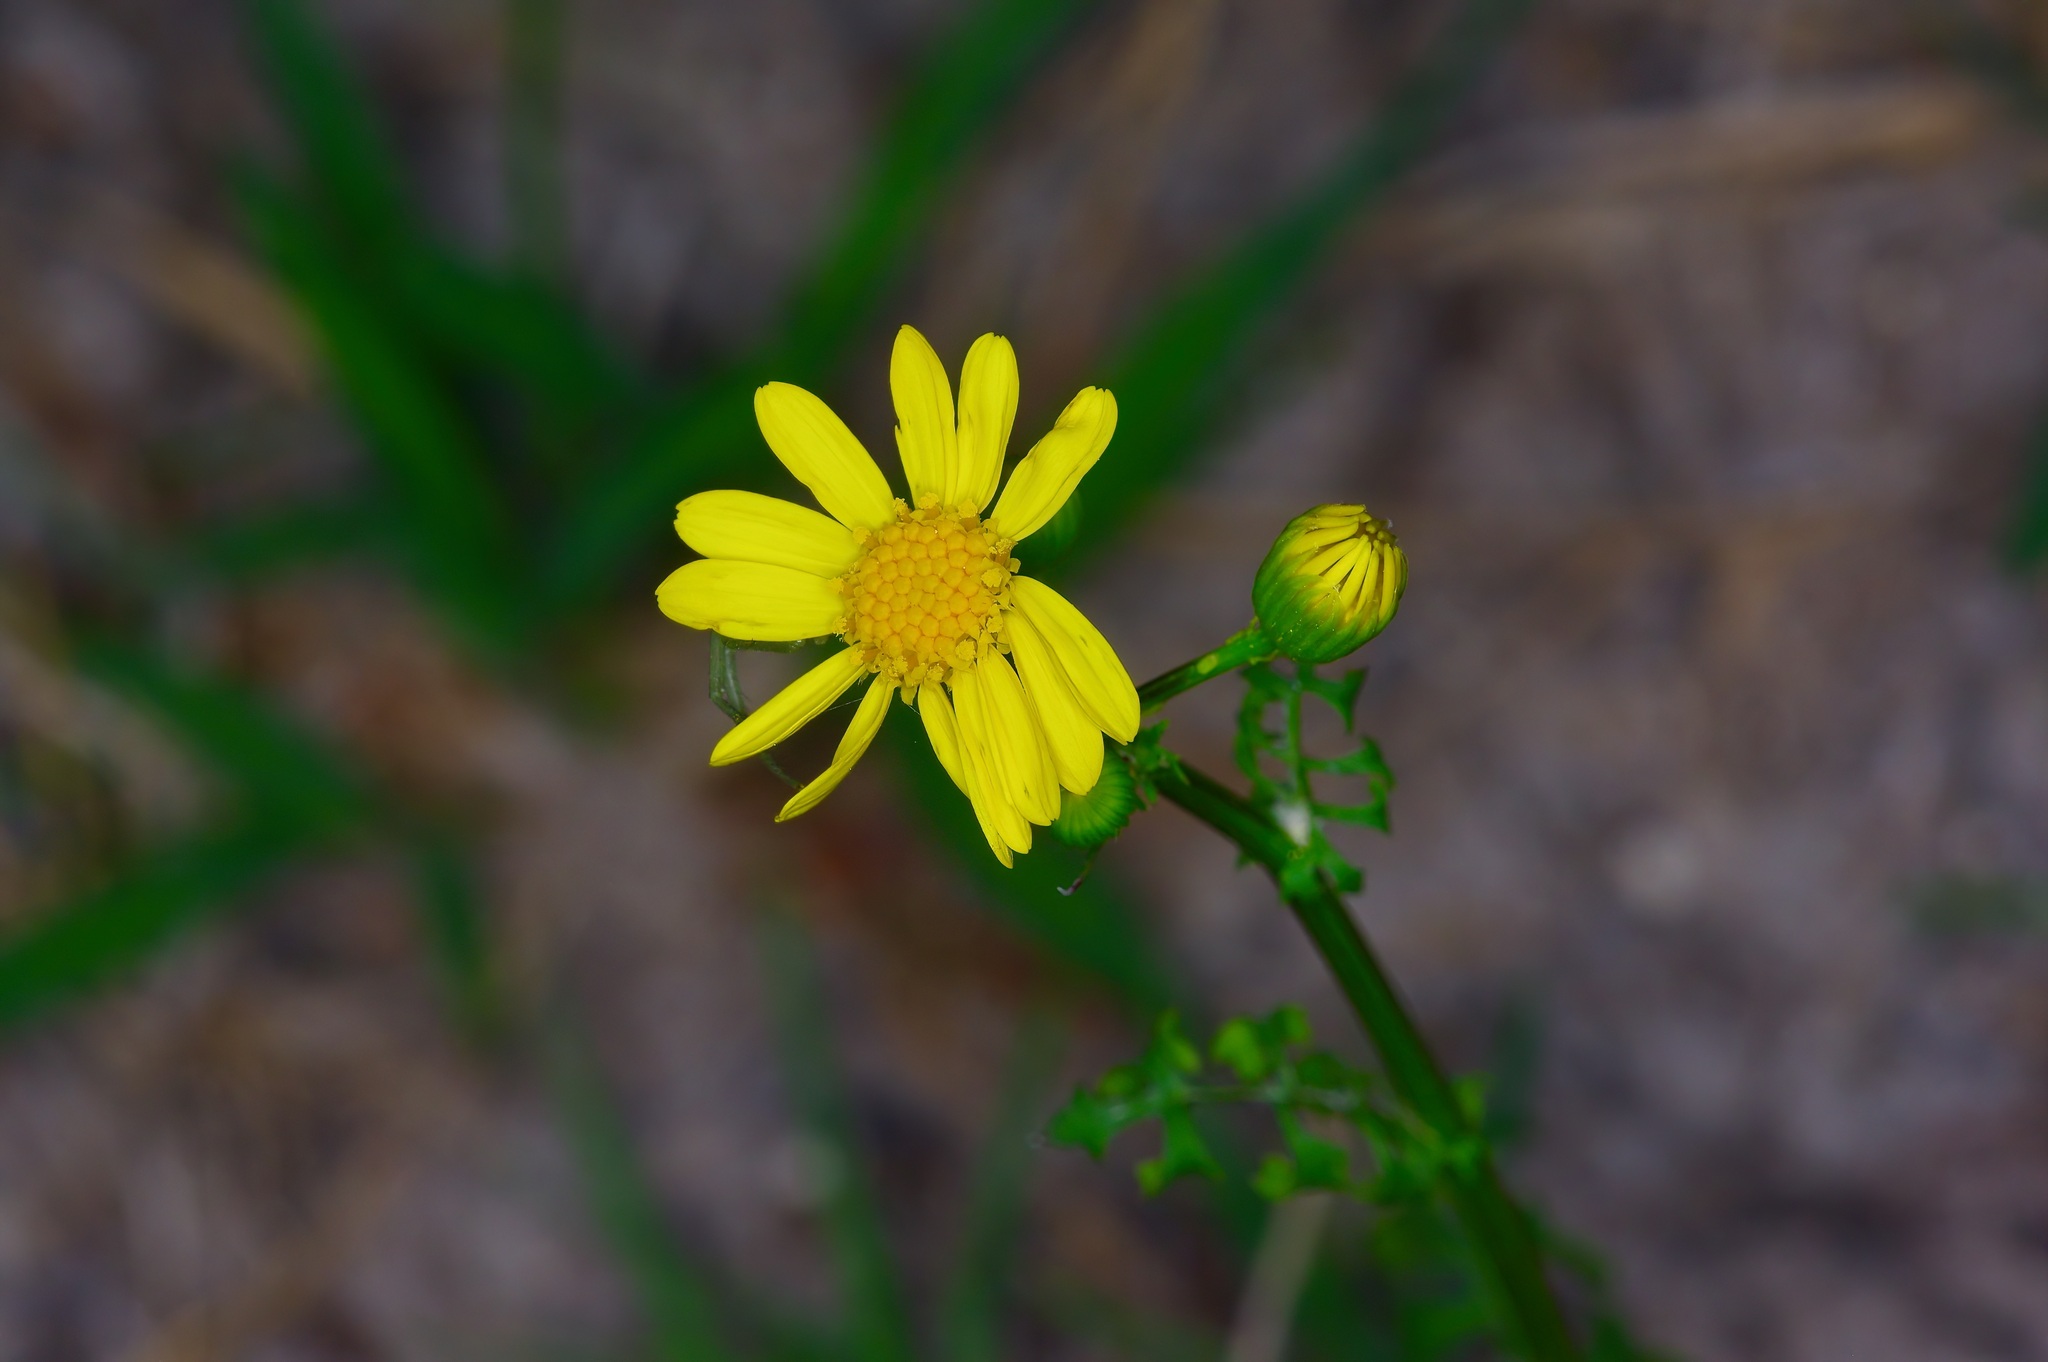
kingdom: Plantae
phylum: Tracheophyta
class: Magnoliopsida
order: Asterales
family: Asteraceae
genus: Packera
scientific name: Packera tampicana
